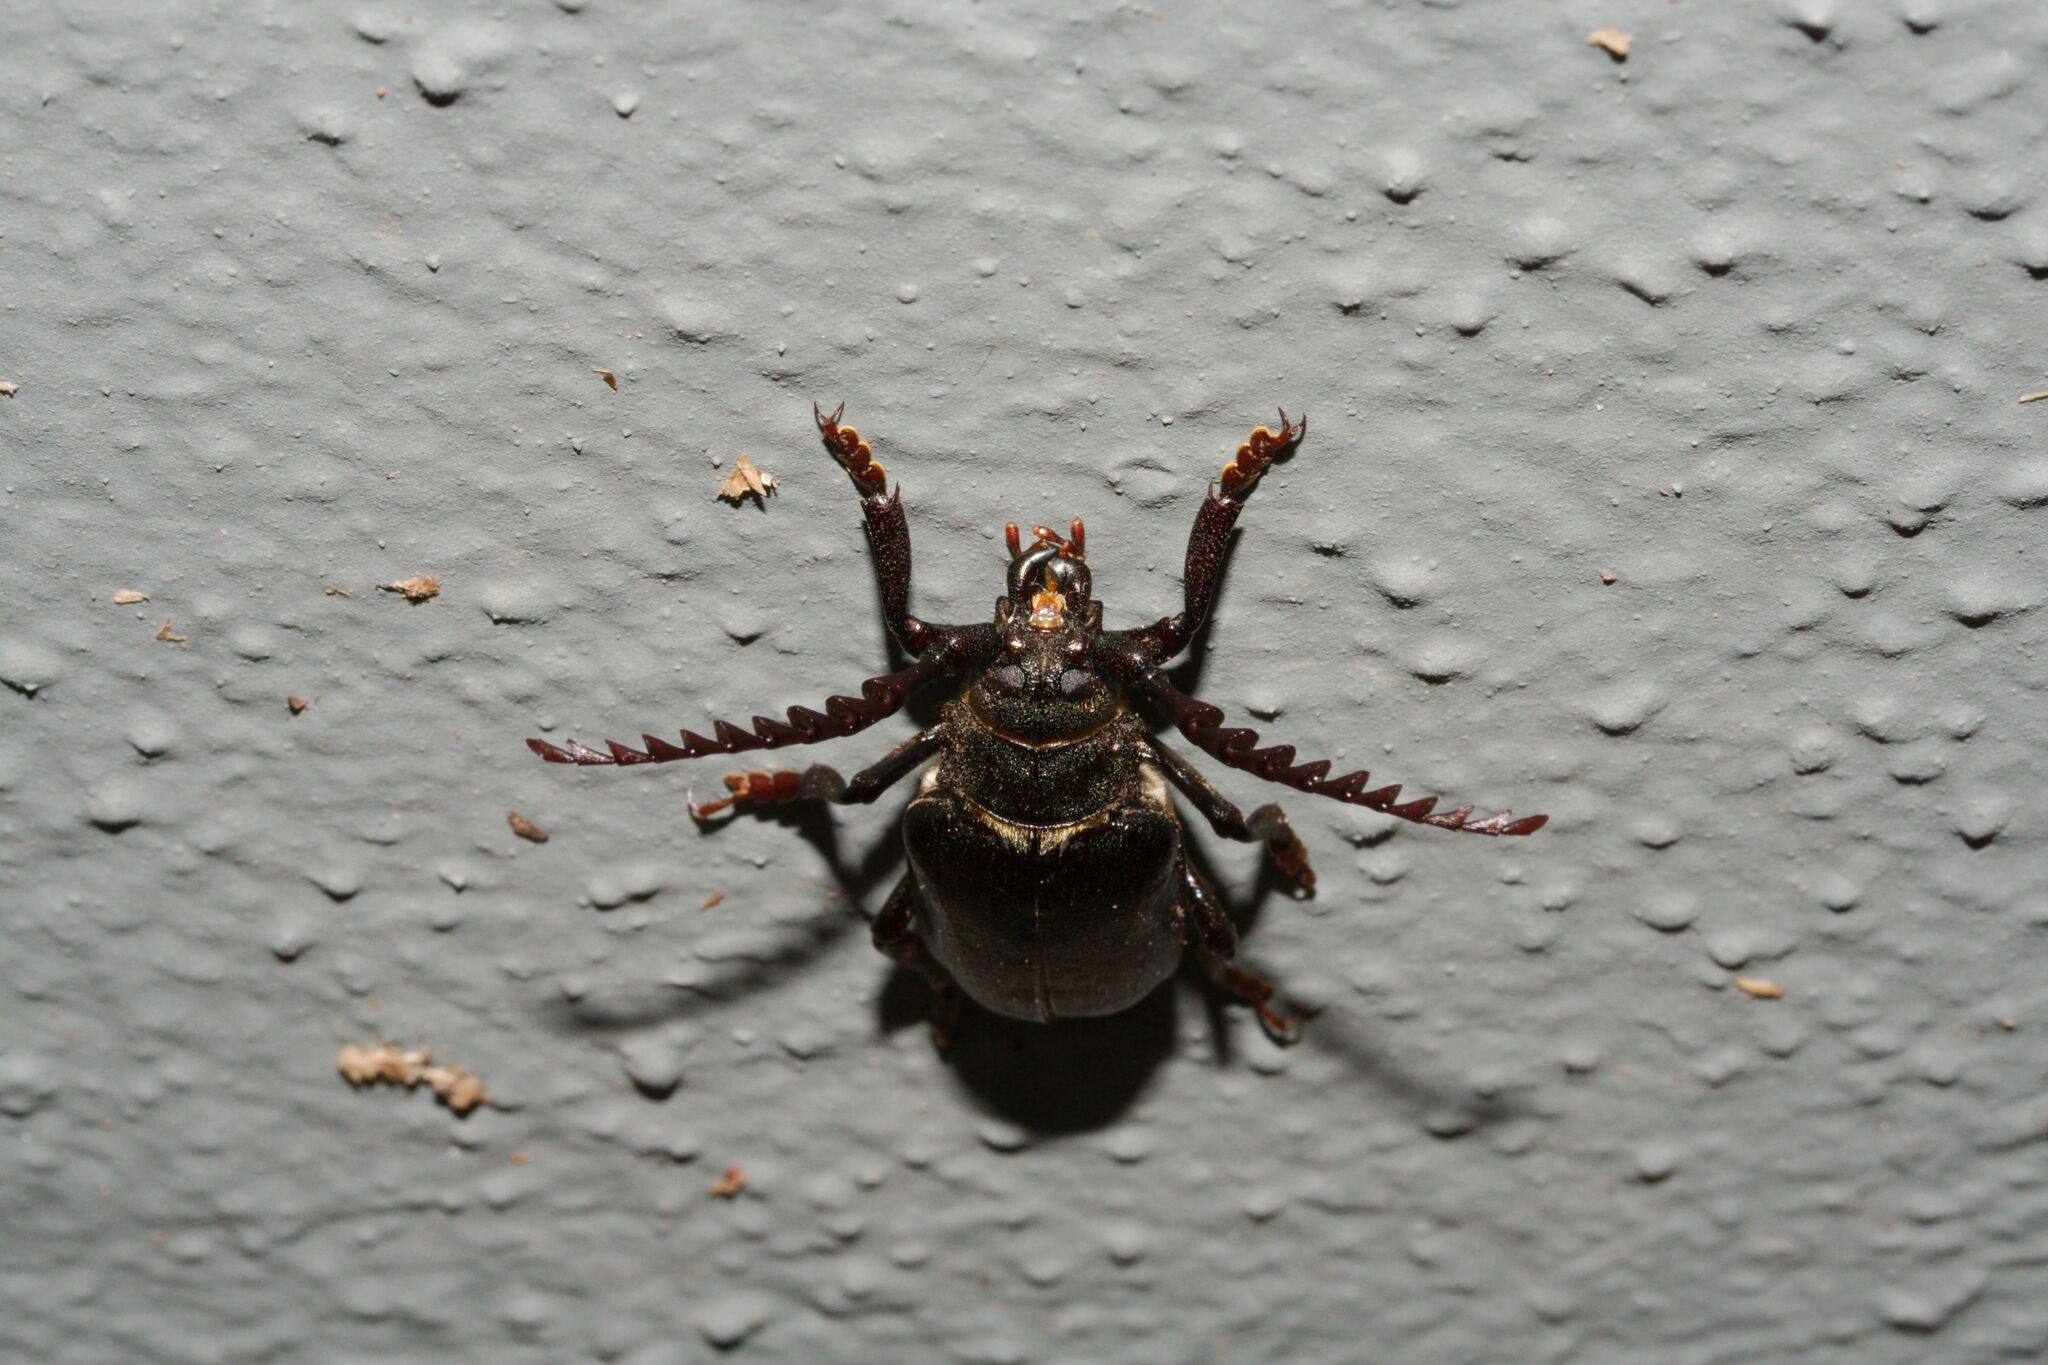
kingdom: Animalia
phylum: Arthropoda
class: Insecta
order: Coleoptera
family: Cerambycidae
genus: Prionus
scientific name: Prionus coriarius
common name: Tanner beetle
